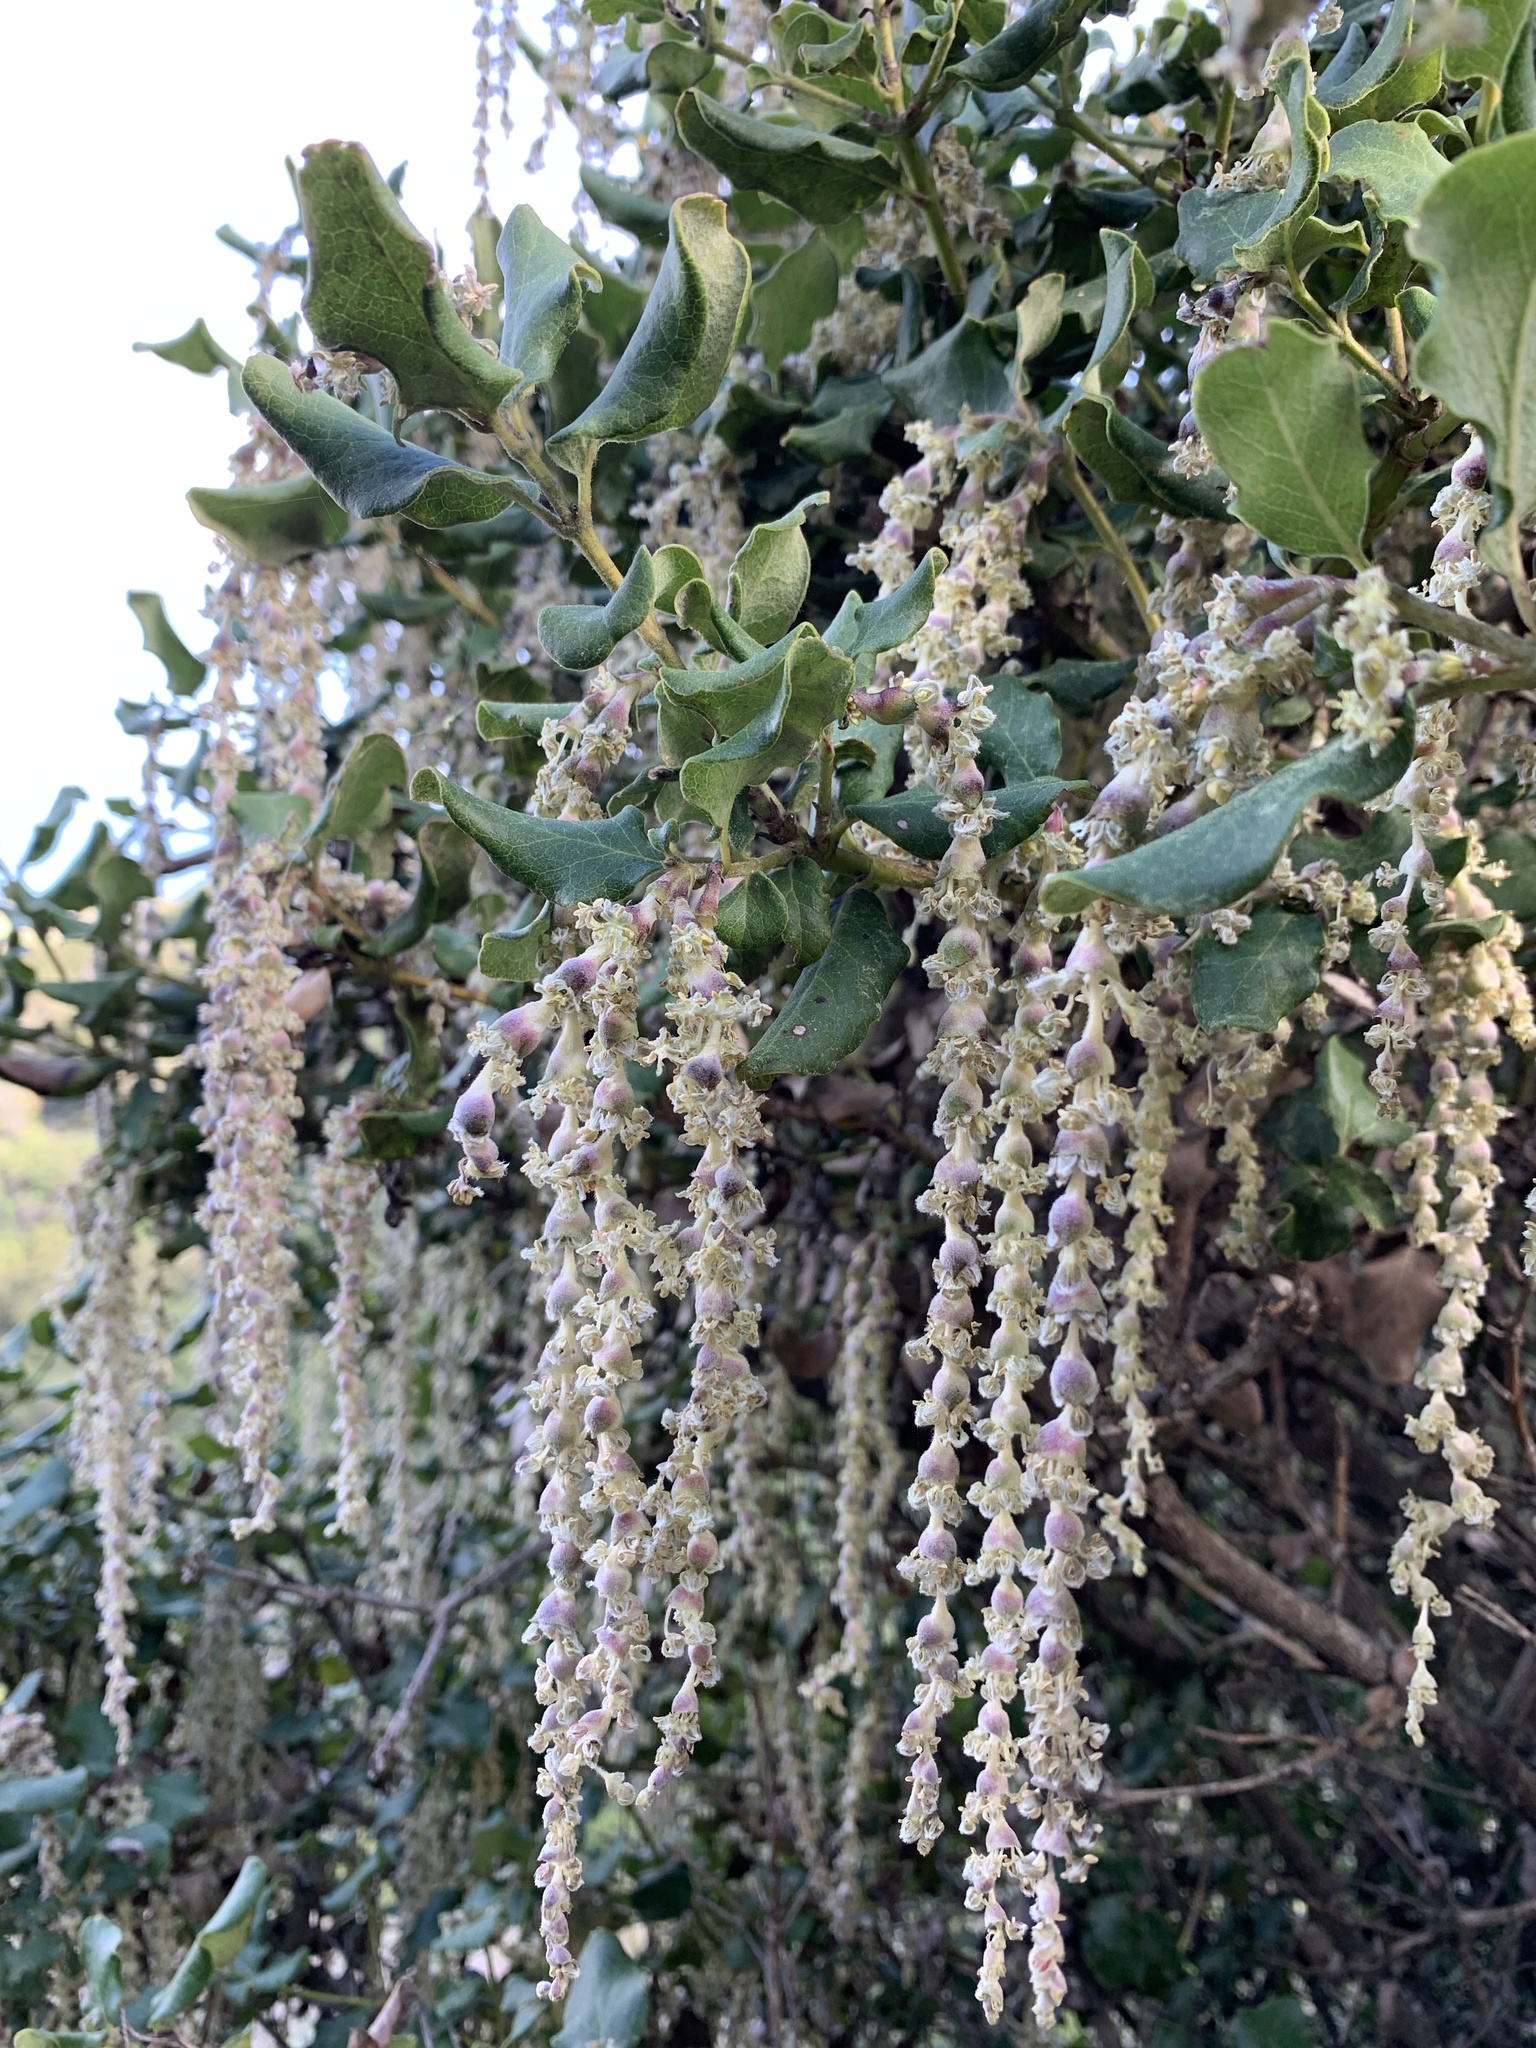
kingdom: Plantae
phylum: Tracheophyta
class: Magnoliopsida
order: Garryales
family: Garryaceae
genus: Garrya
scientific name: Garrya elliptica
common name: Silk-tassel
